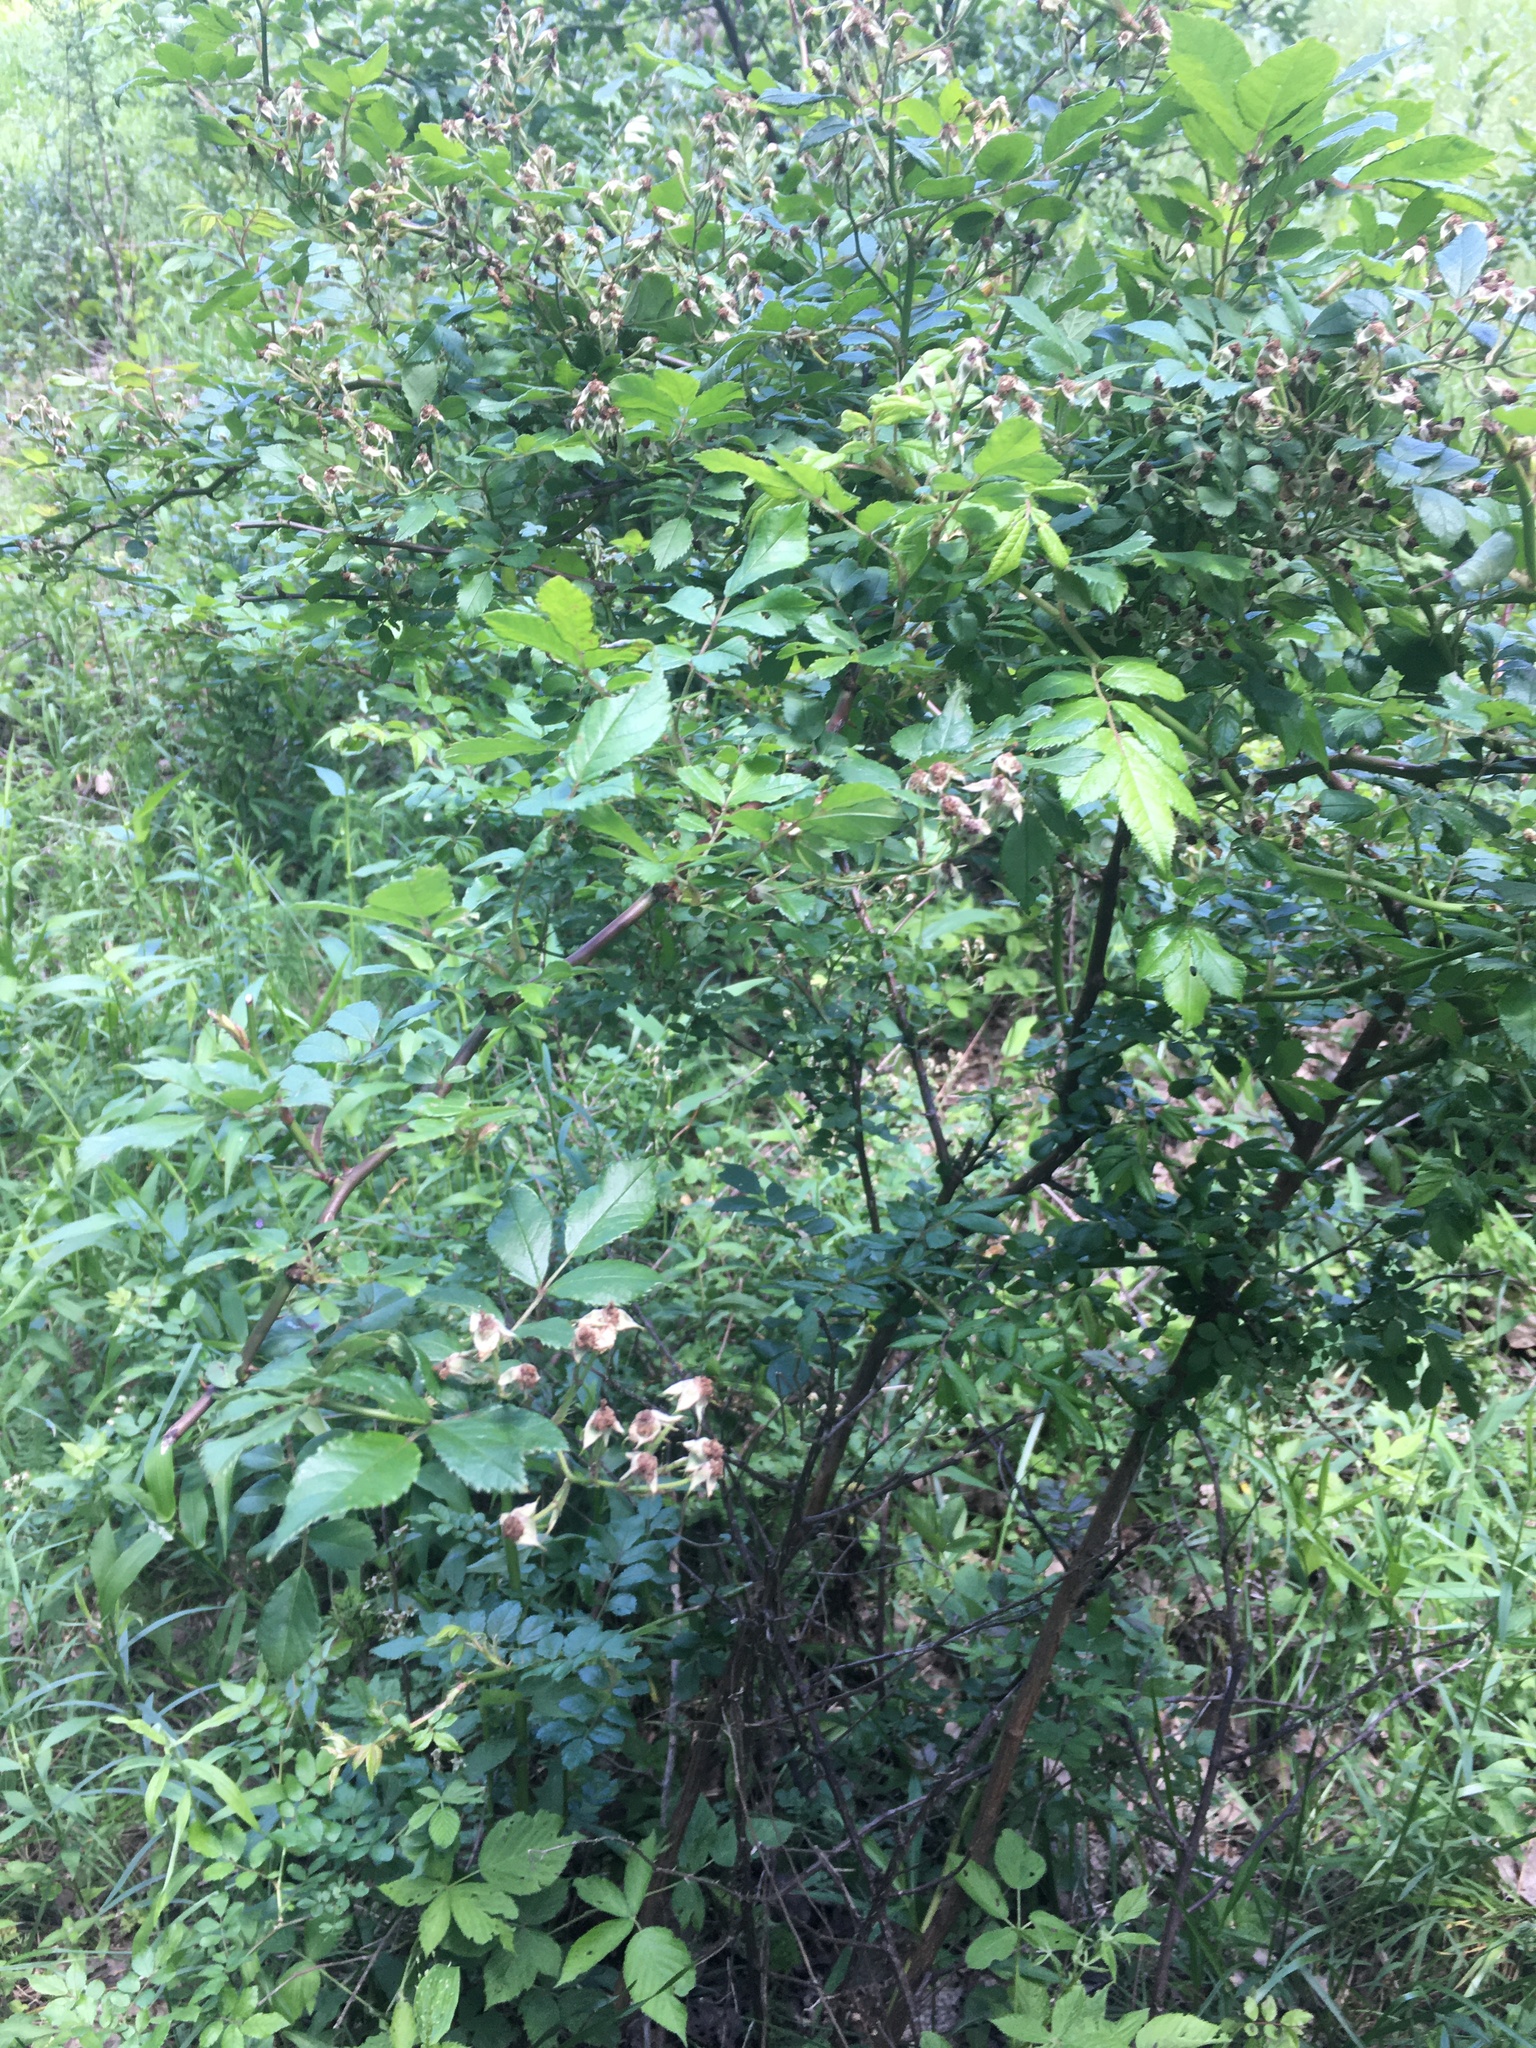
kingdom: Plantae
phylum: Tracheophyta
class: Magnoliopsida
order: Rosales
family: Rosaceae
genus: Rosa
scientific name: Rosa multiflora
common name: Multiflora rose
